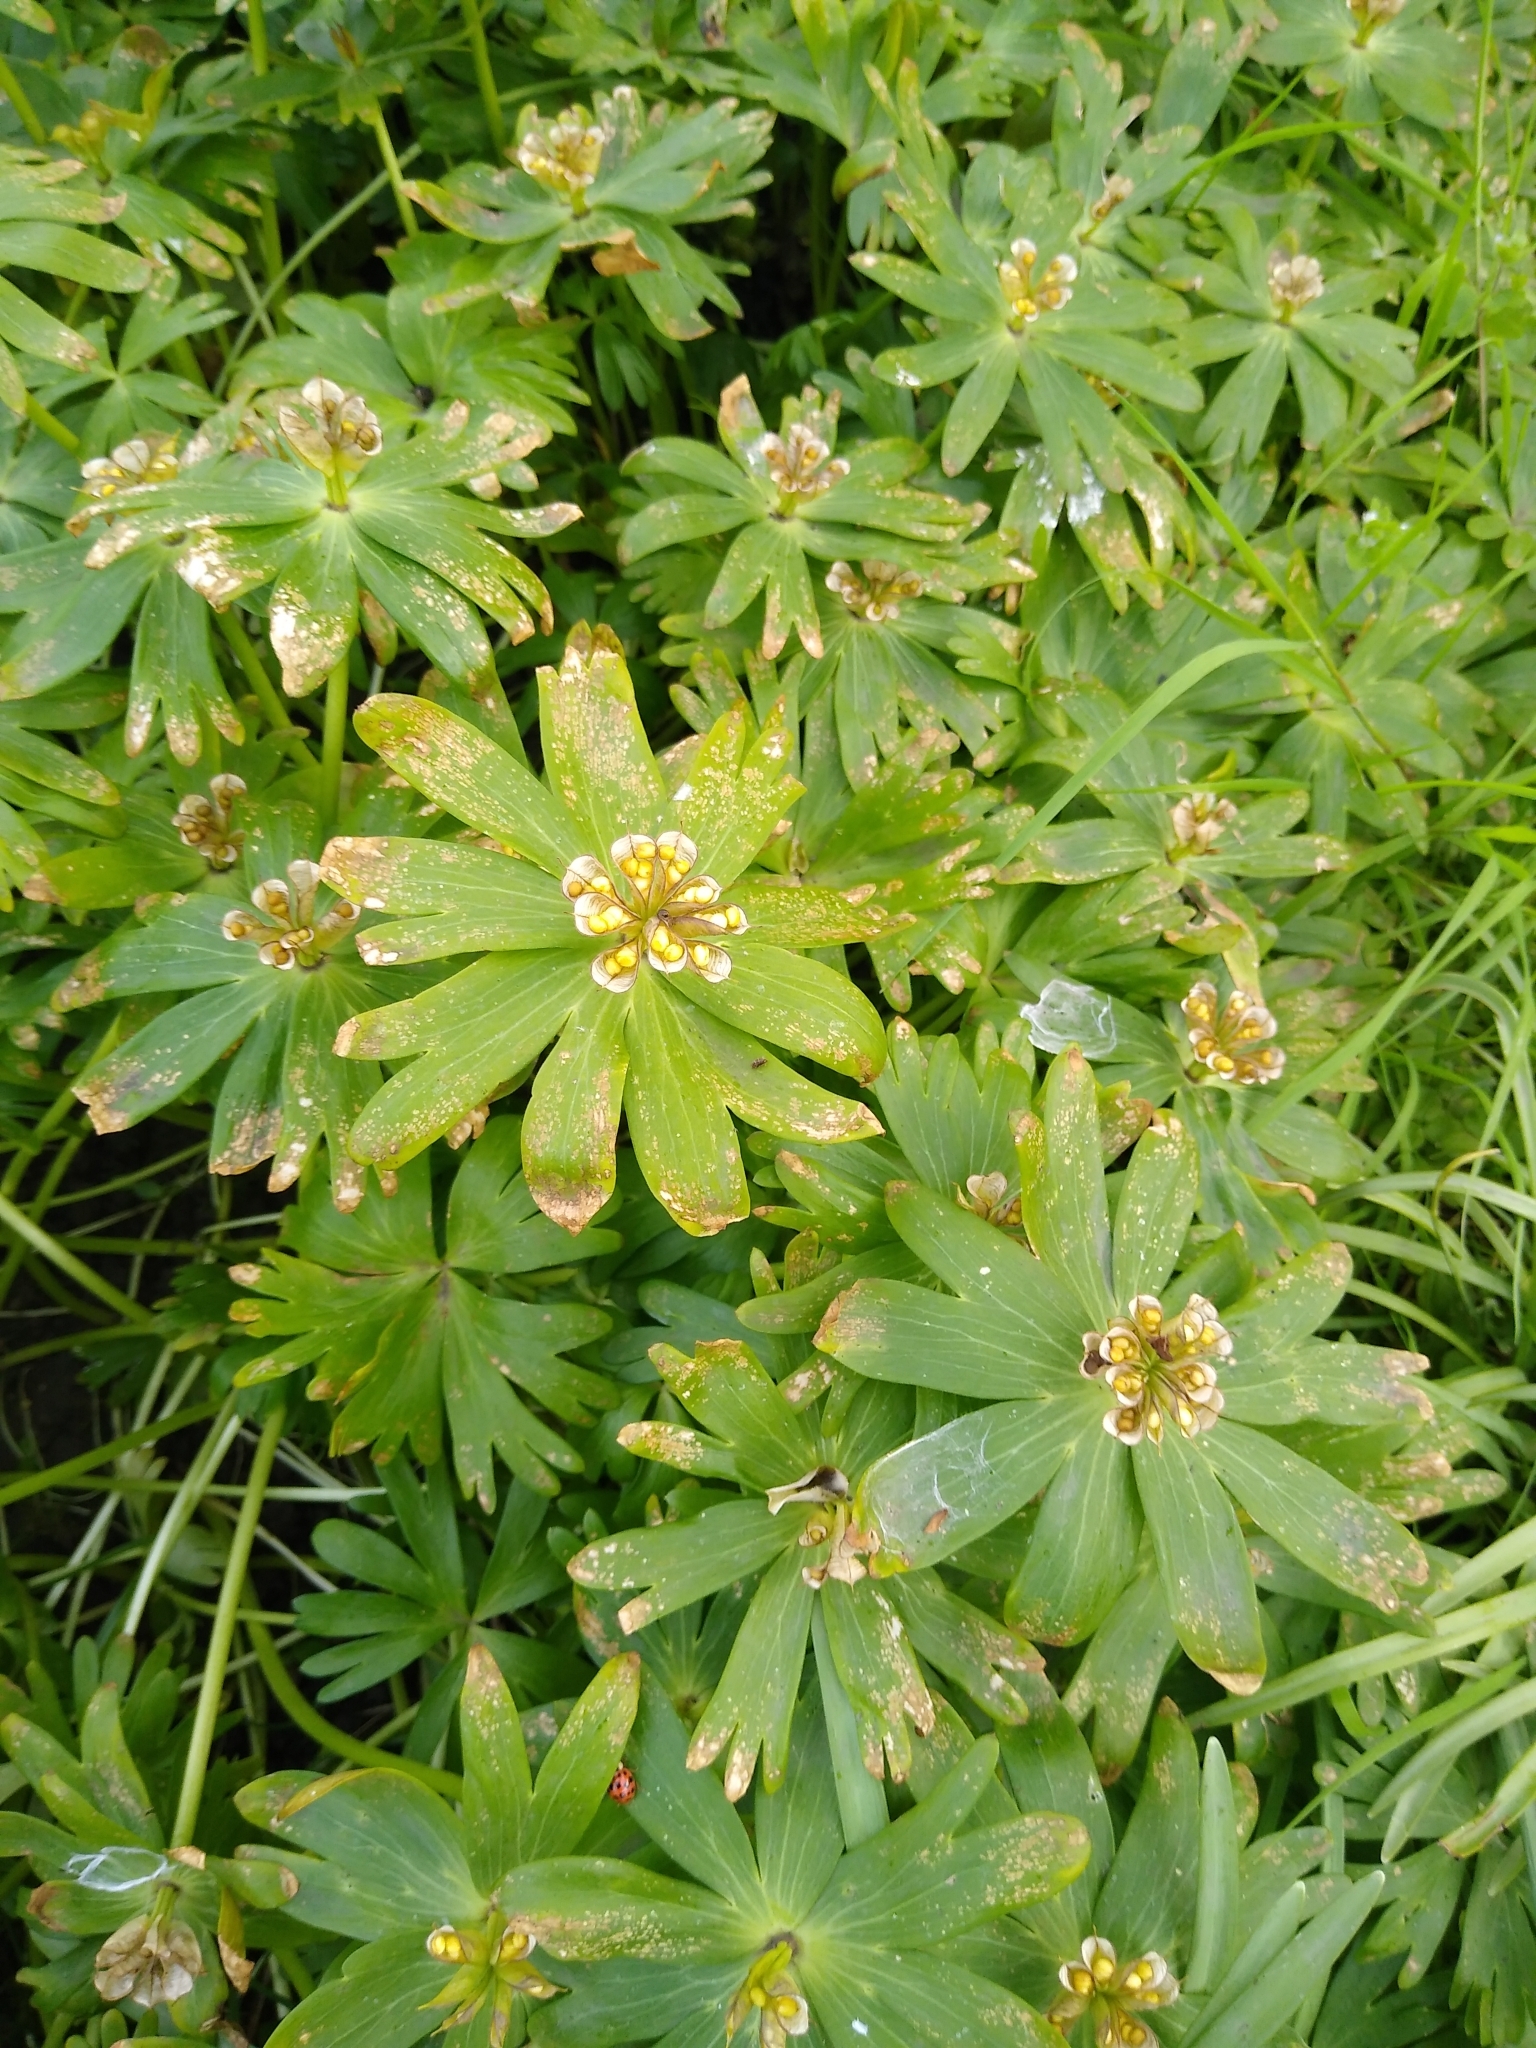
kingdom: Plantae
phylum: Tracheophyta
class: Magnoliopsida
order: Ranunculales
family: Ranunculaceae
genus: Eranthis
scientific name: Eranthis hyemalis
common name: Winter aconite
